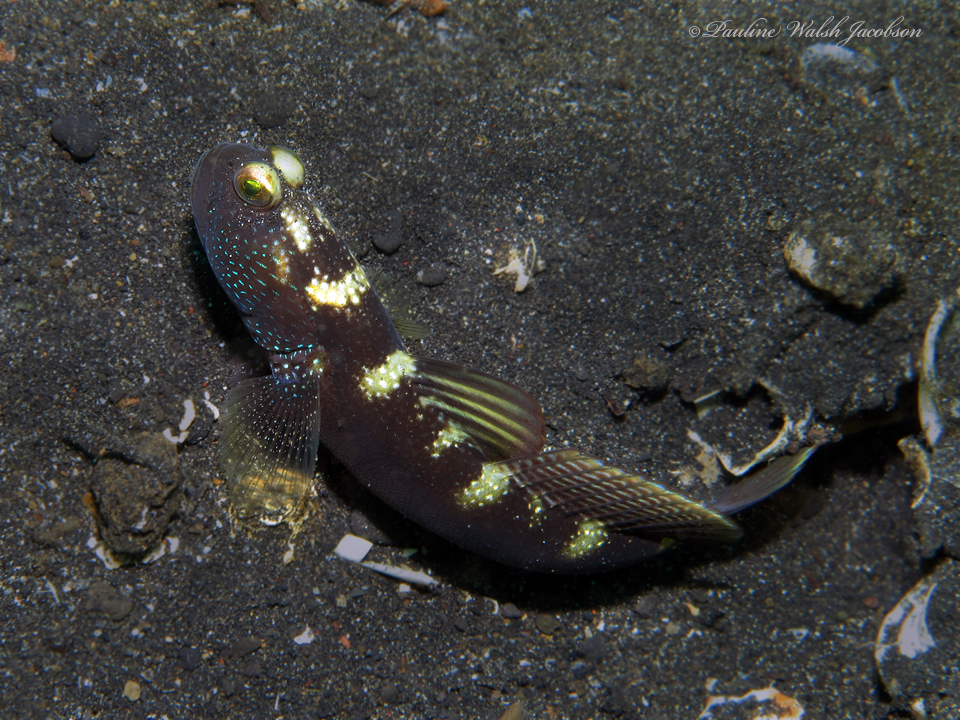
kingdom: Animalia
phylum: Chordata
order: Perciformes
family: Gobiidae
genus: Cryptocentrus
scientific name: Cryptocentrus fasciatus
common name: Barred prawn-goby
